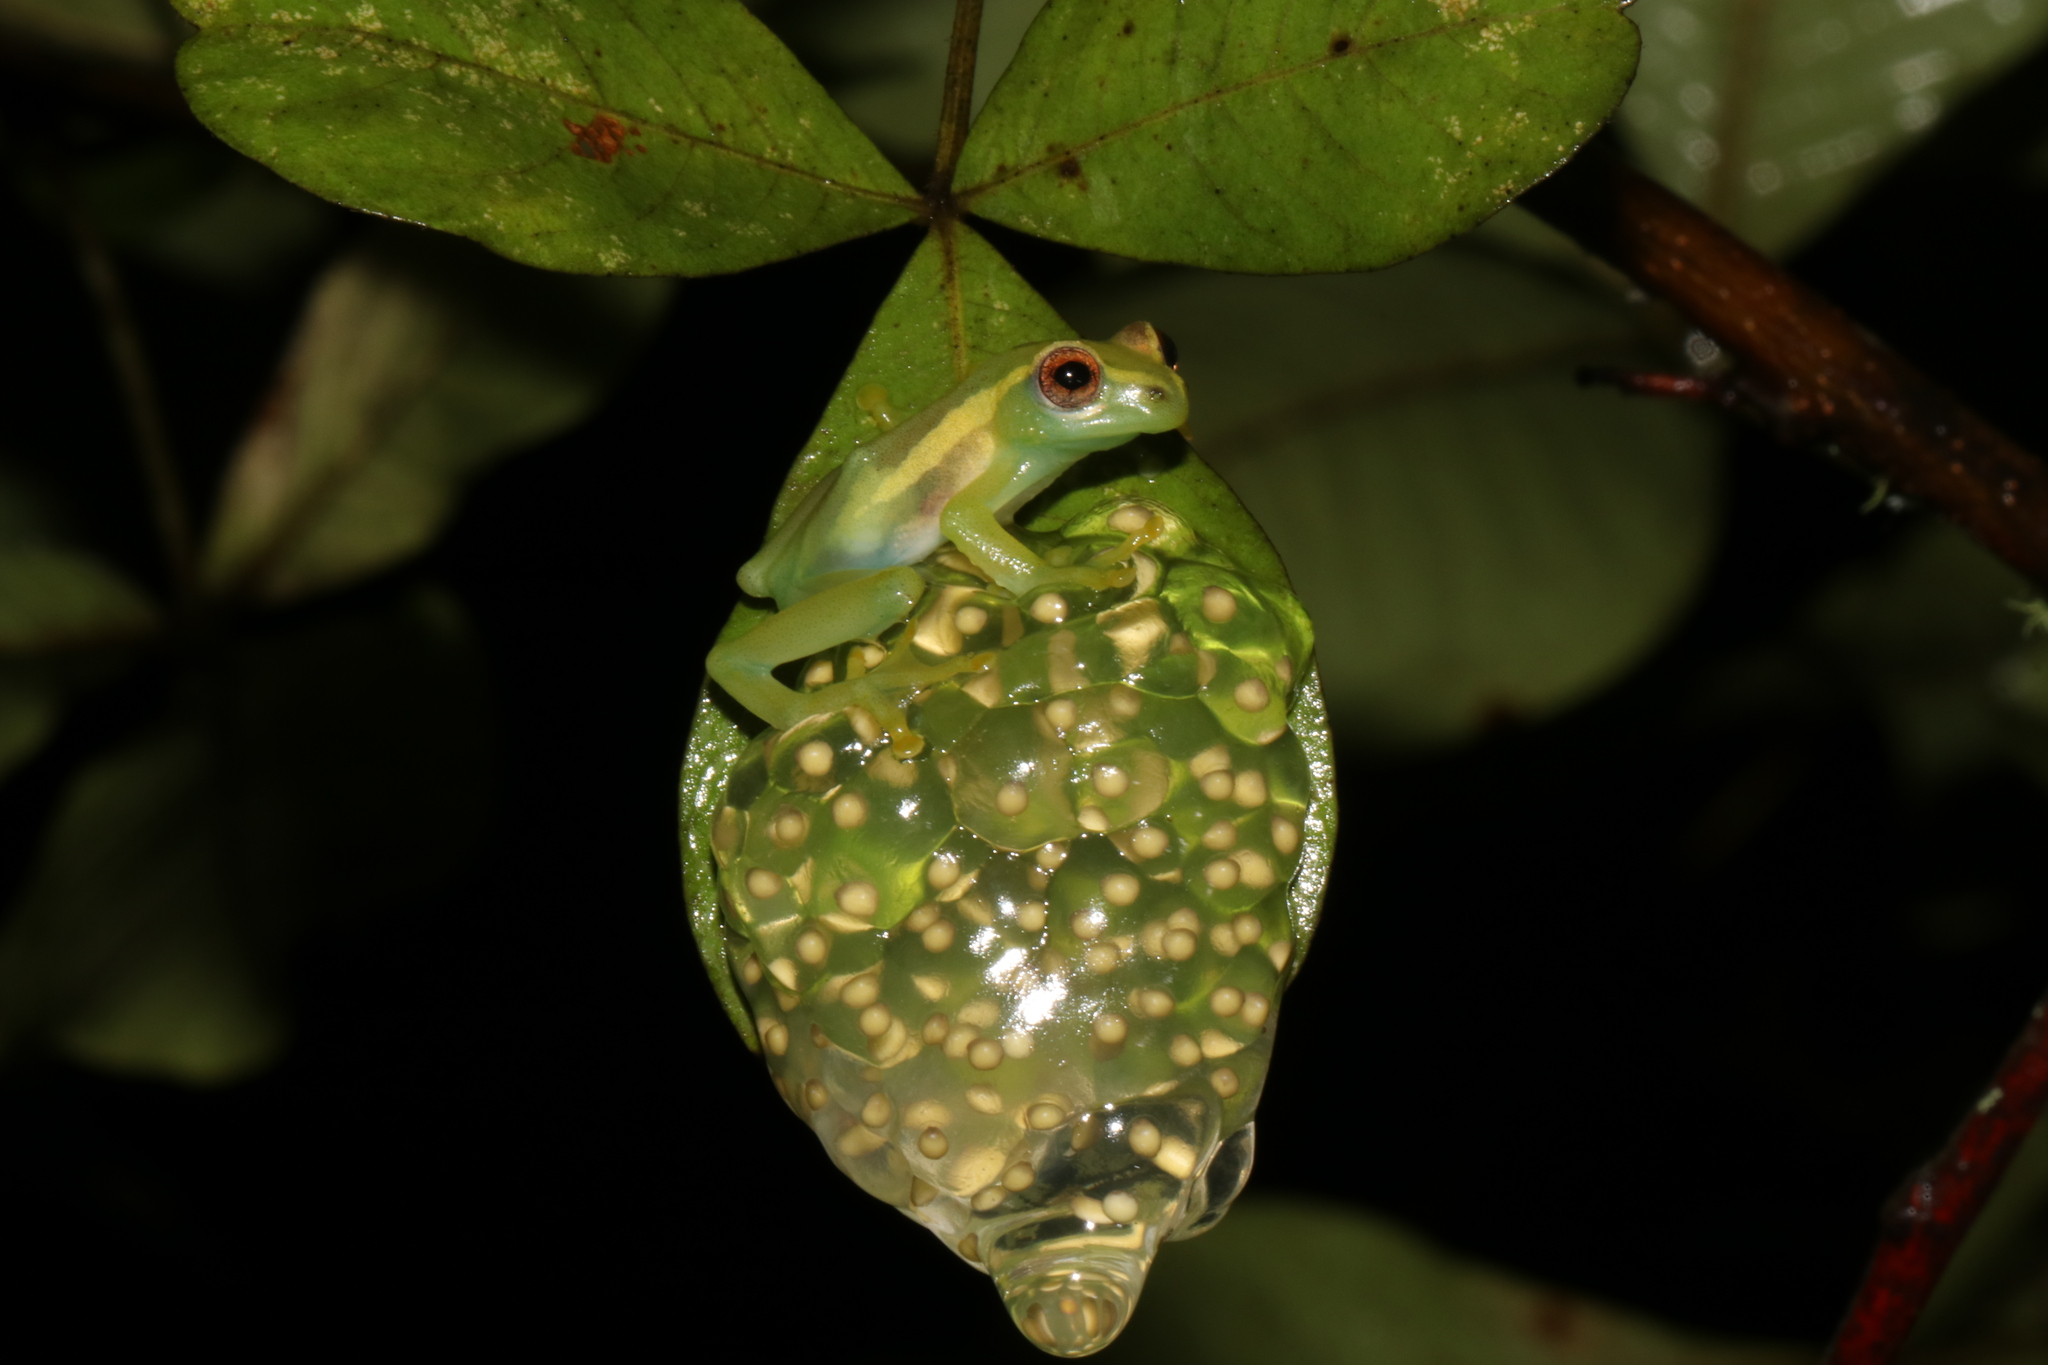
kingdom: Animalia
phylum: Chordata
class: Amphibia
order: Anura
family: Hyperoliidae
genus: Hyperolius
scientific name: Hyperolius davenporti
